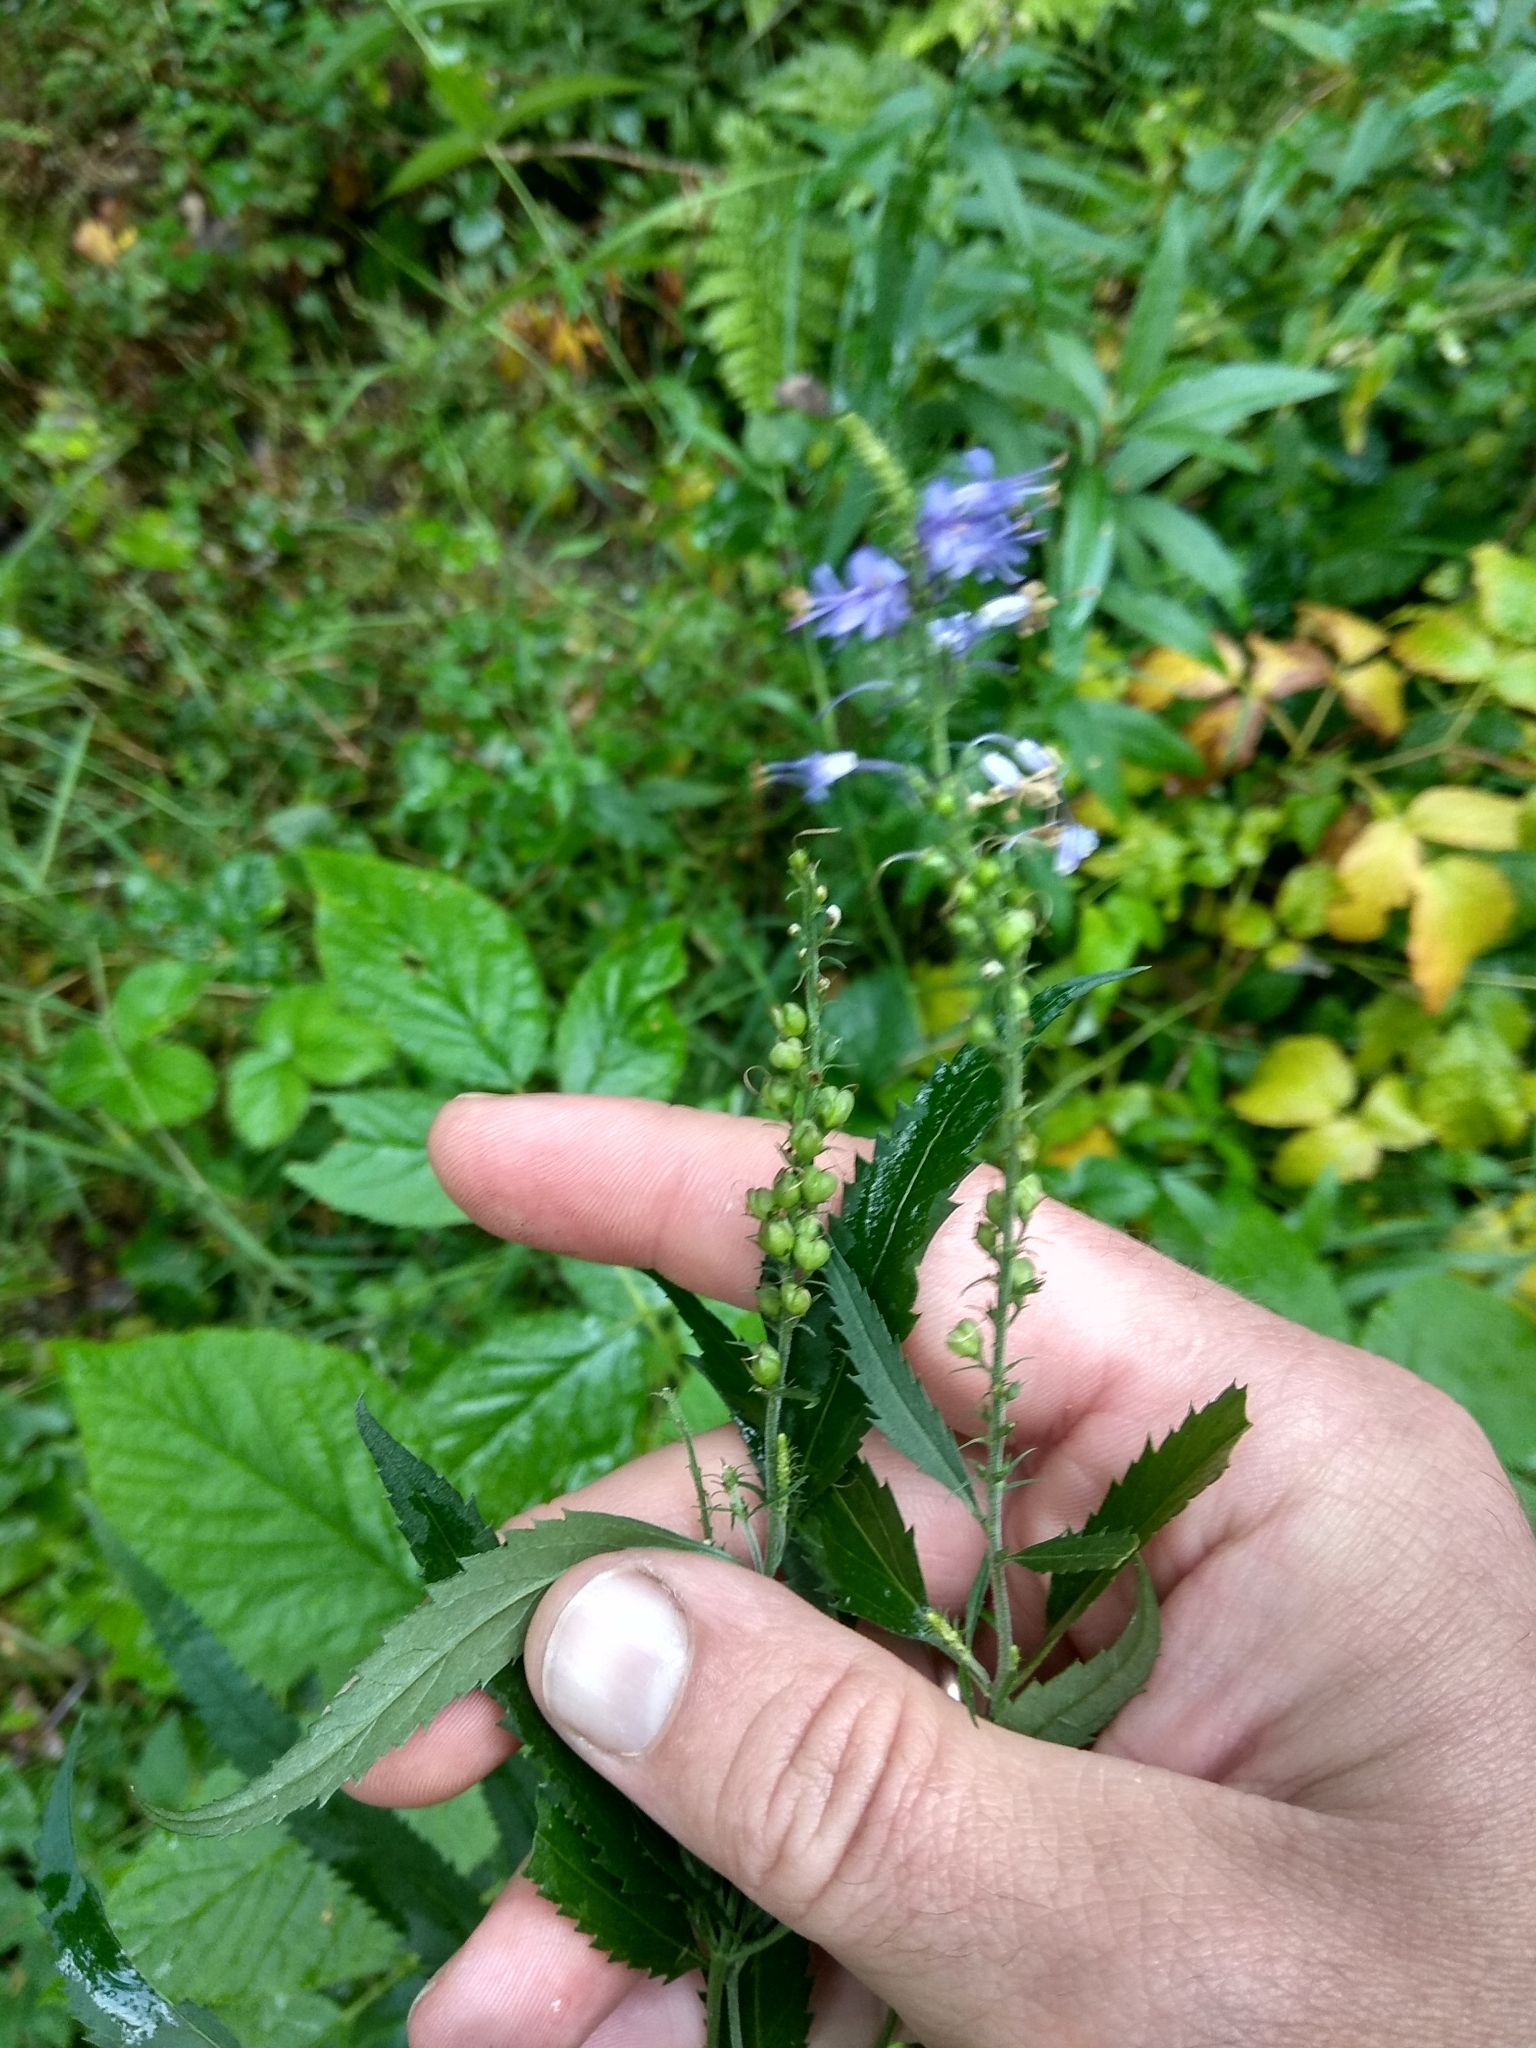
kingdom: Plantae
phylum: Tracheophyta
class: Magnoliopsida
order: Lamiales
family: Plantaginaceae
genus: Veronica
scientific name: Veronica longifolia
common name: Garden speedwell
